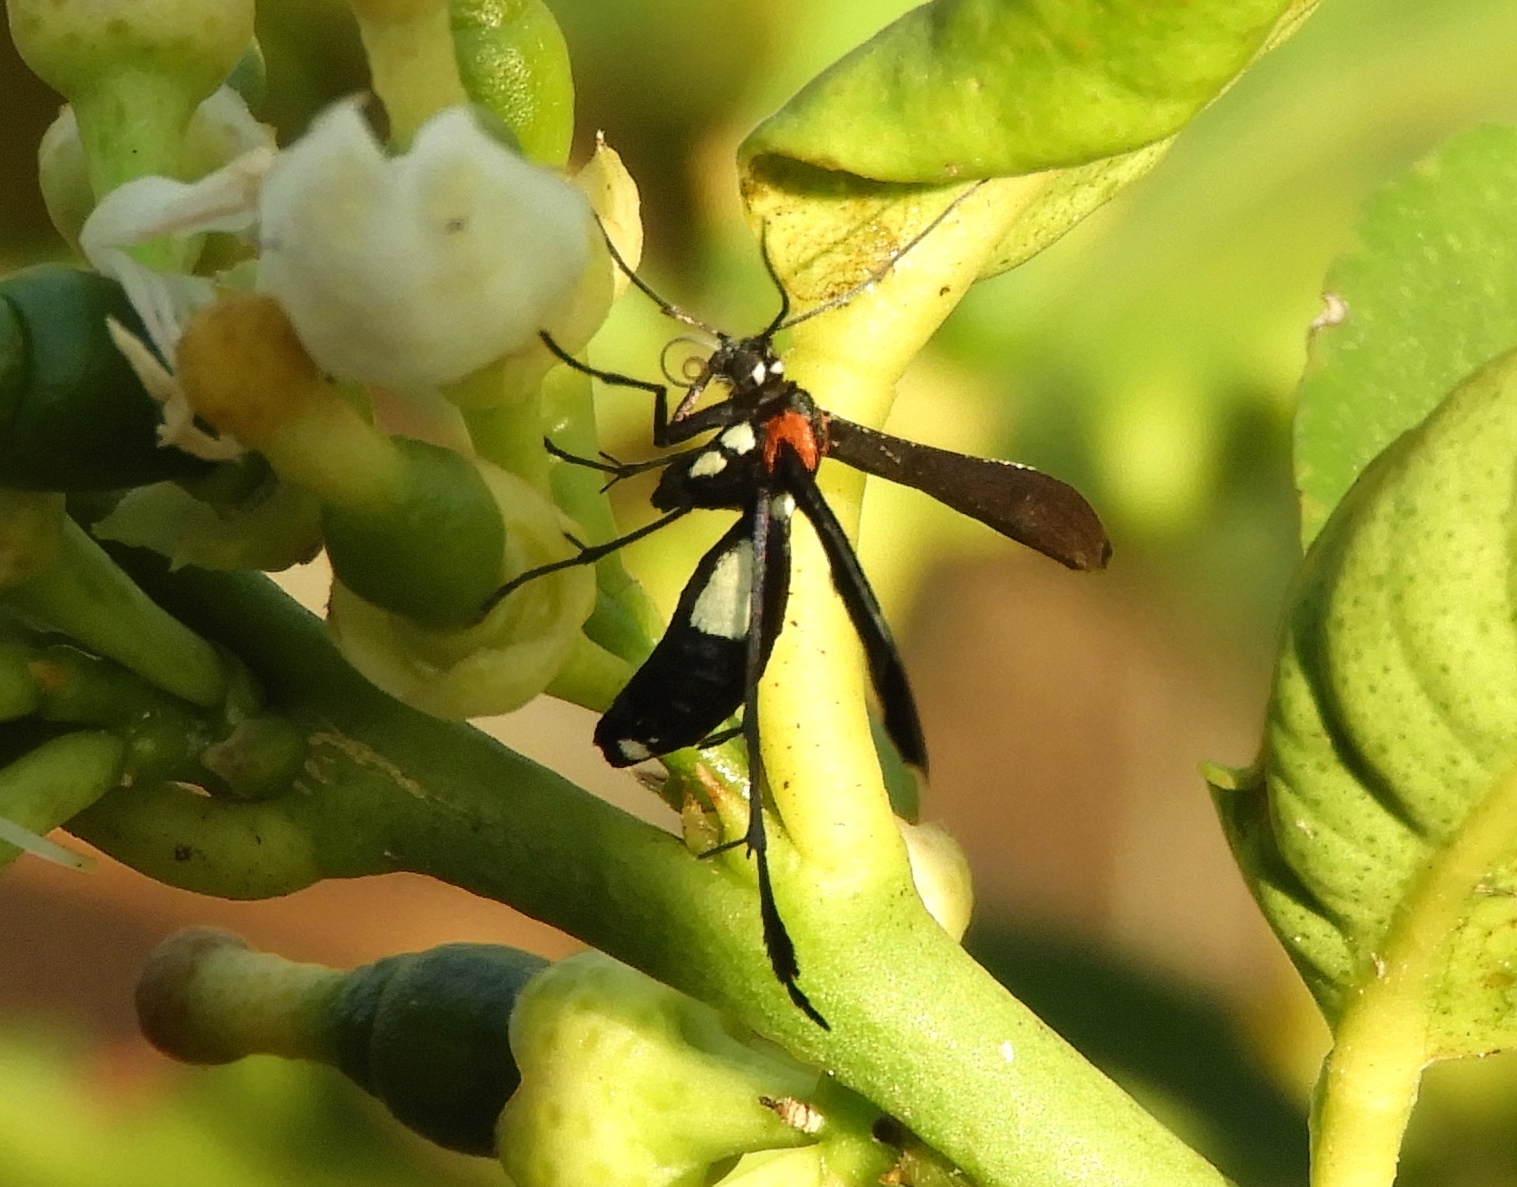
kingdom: Animalia
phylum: Arthropoda
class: Insecta
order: Lepidoptera
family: Pterophoridae
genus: Hellinsia
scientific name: Hellinsia chamelai
